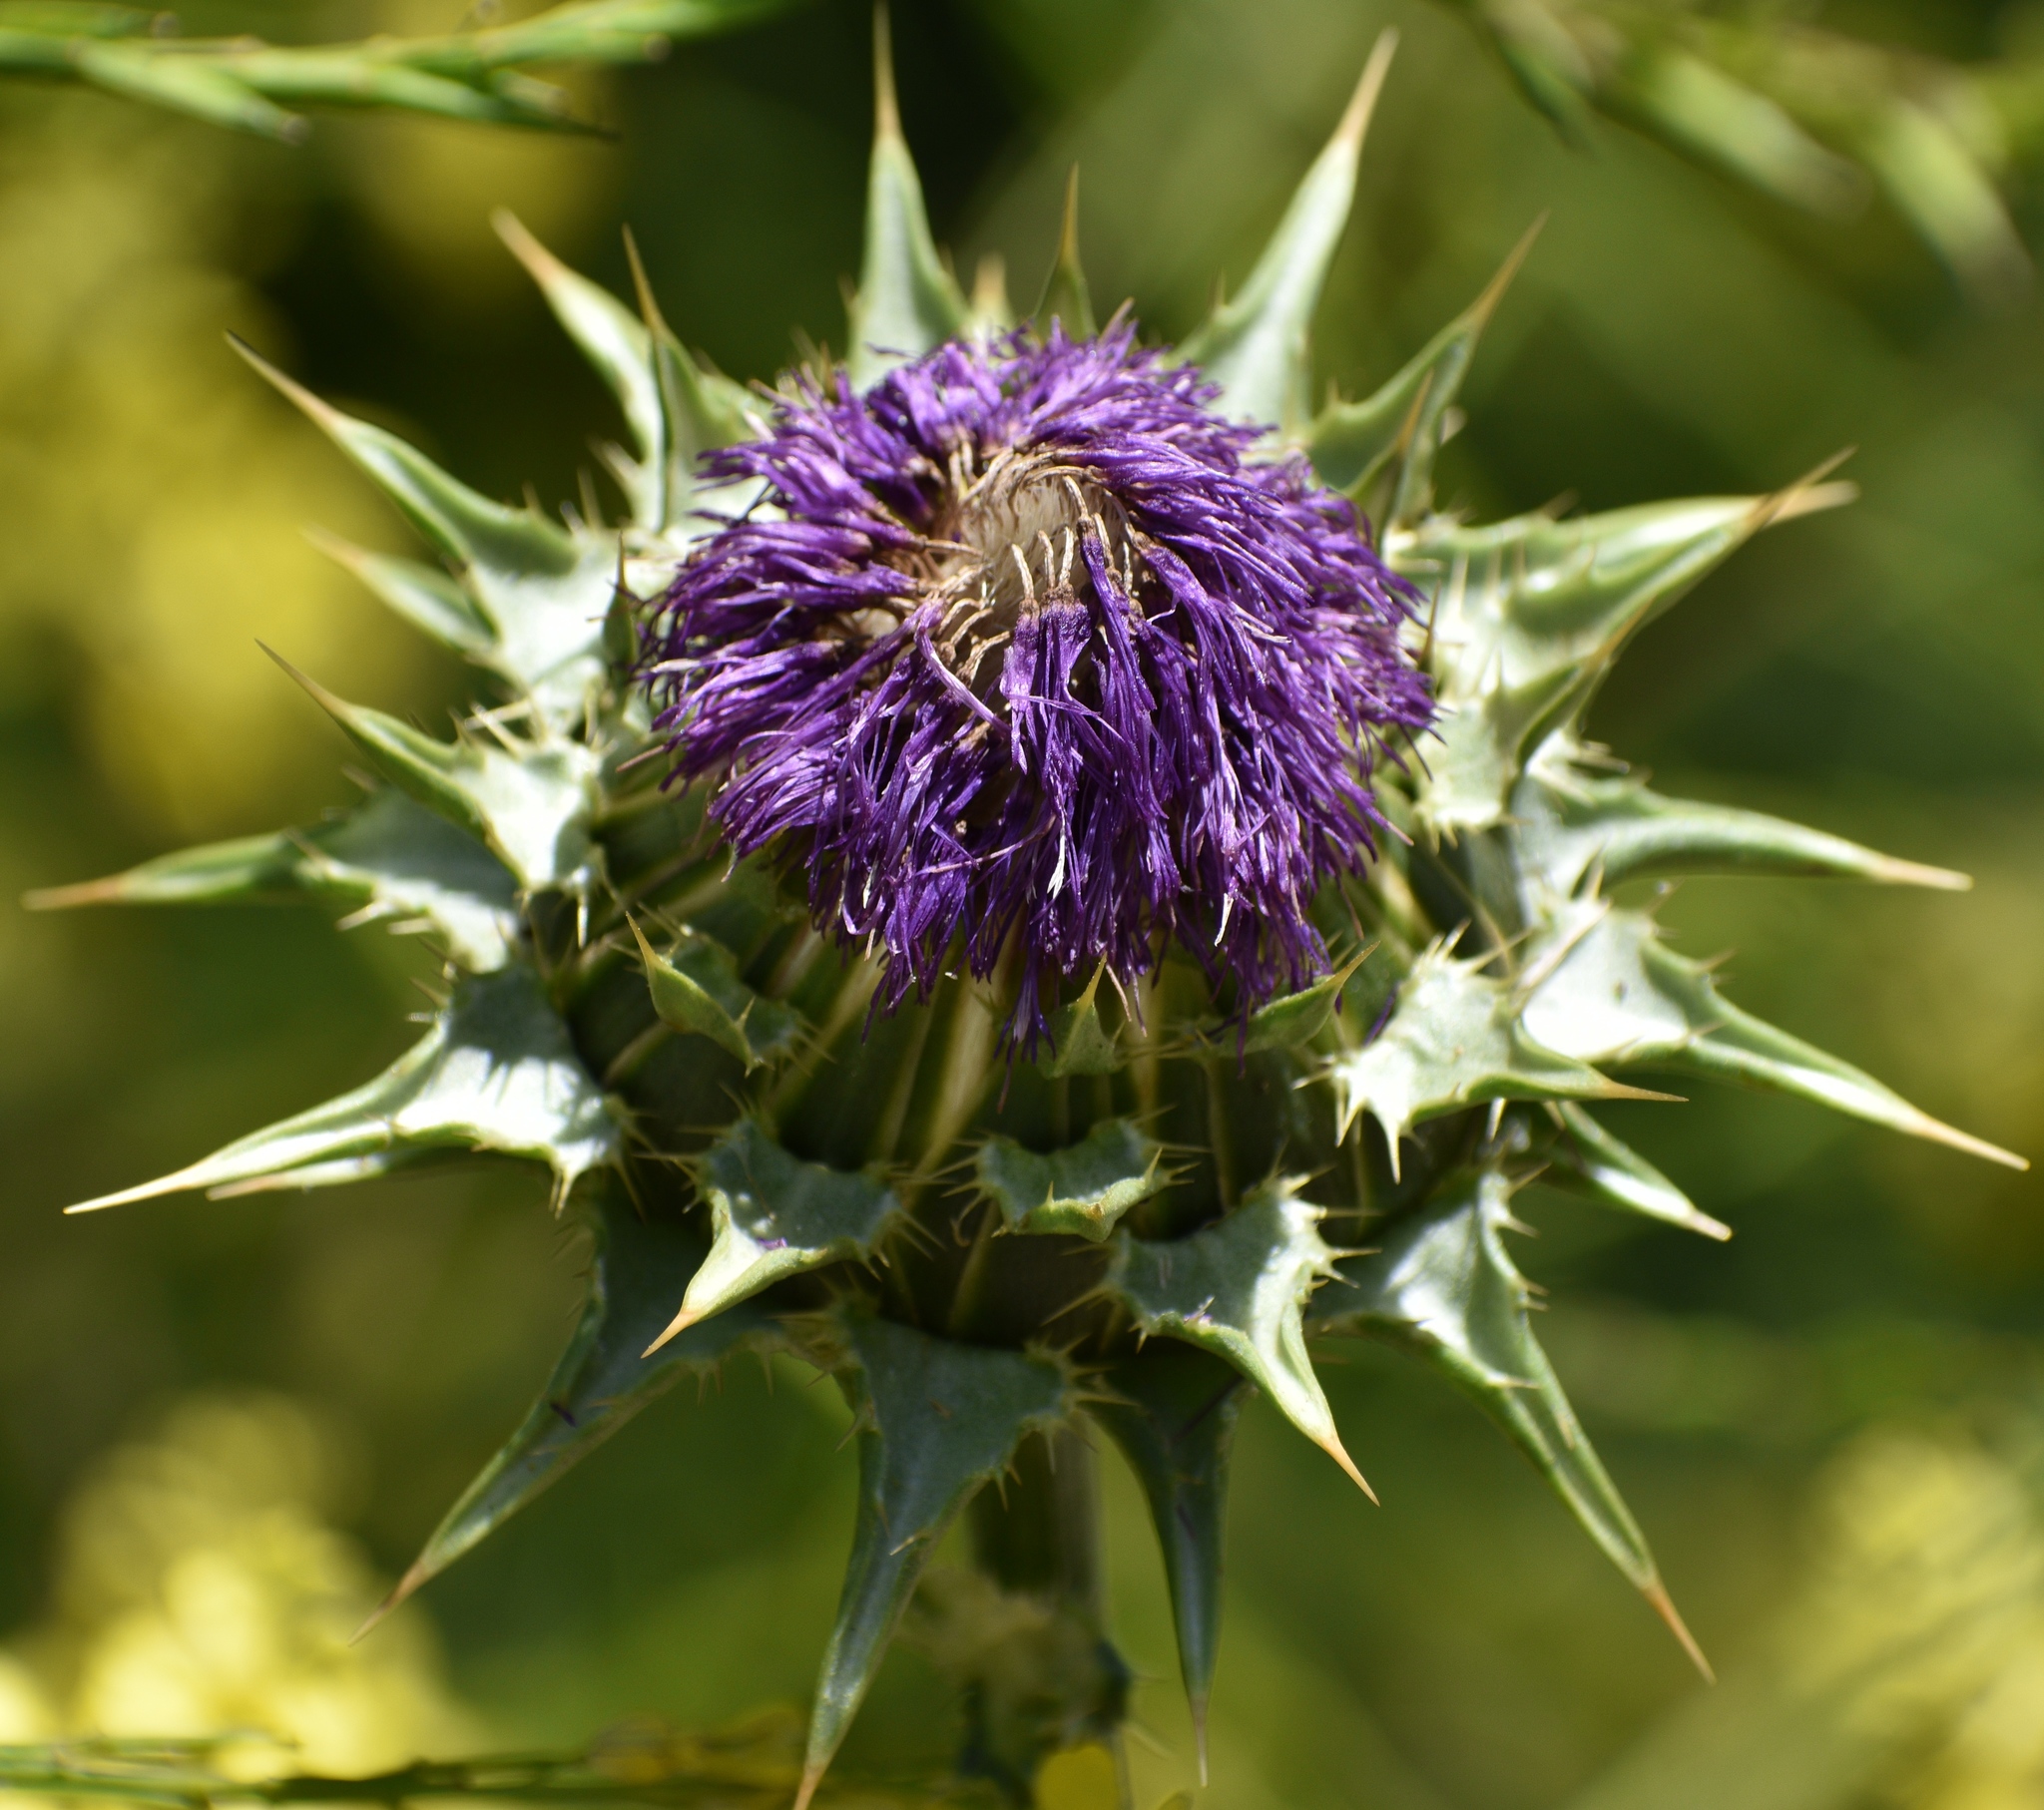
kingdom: Plantae
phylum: Tracheophyta
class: Magnoliopsida
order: Asterales
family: Asteraceae
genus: Silybum
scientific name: Silybum marianum
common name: Milk thistle
